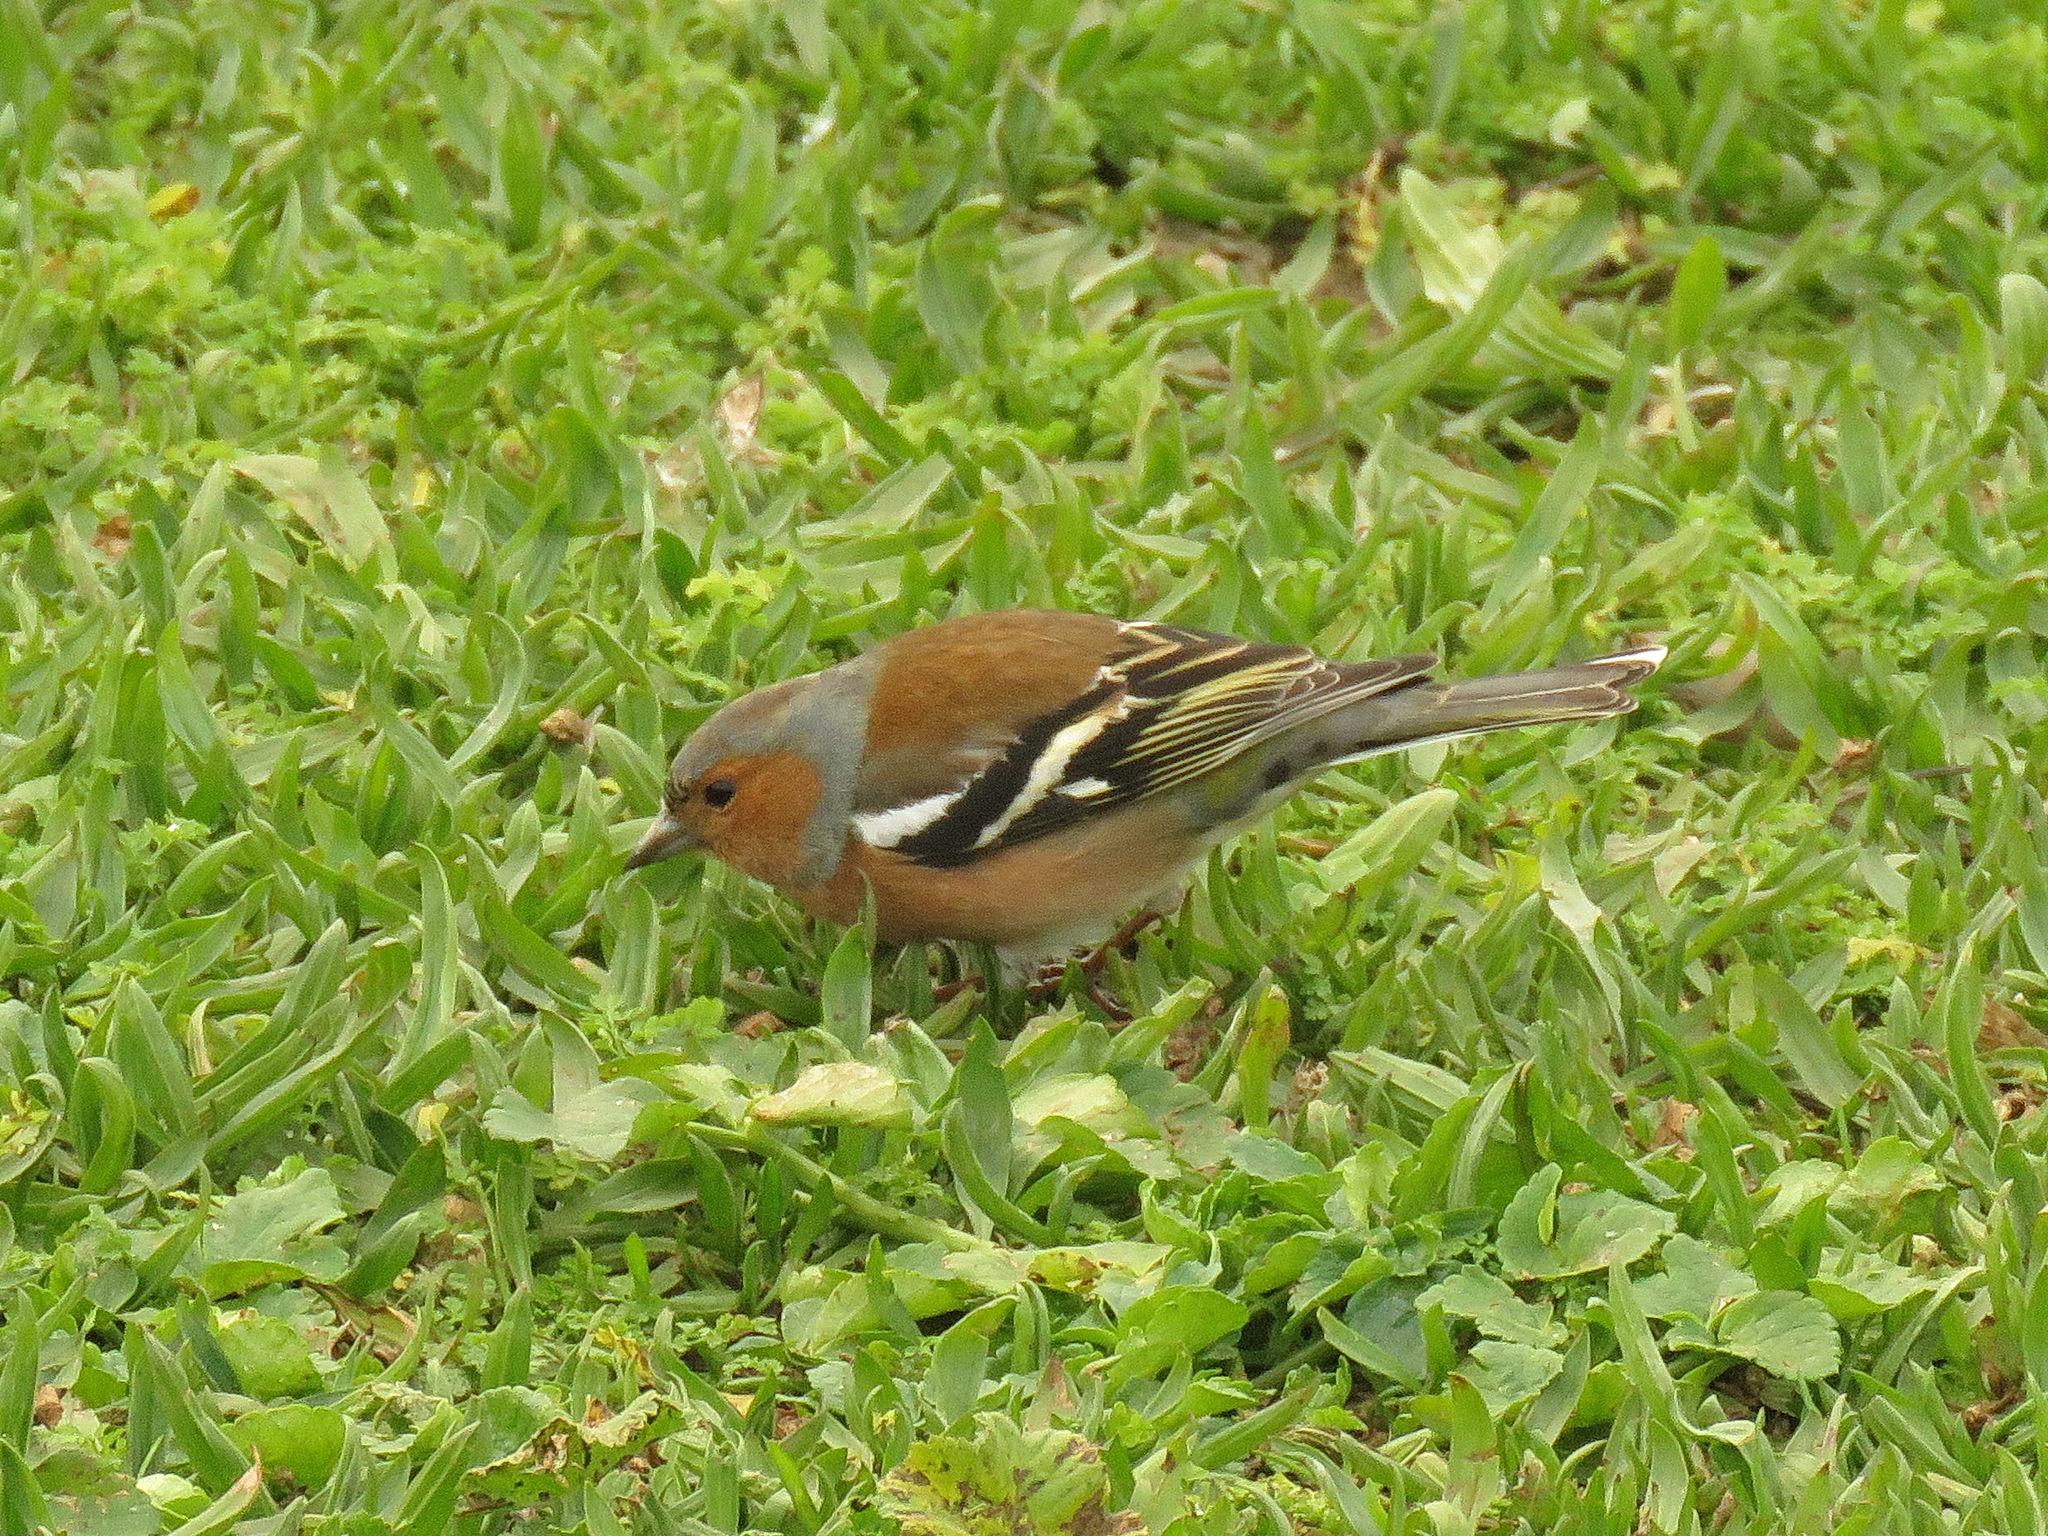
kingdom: Animalia
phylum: Chordata
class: Aves
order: Passeriformes
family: Fringillidae
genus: Fringilla
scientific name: Fringilla coelebs
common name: Common chaffinch
